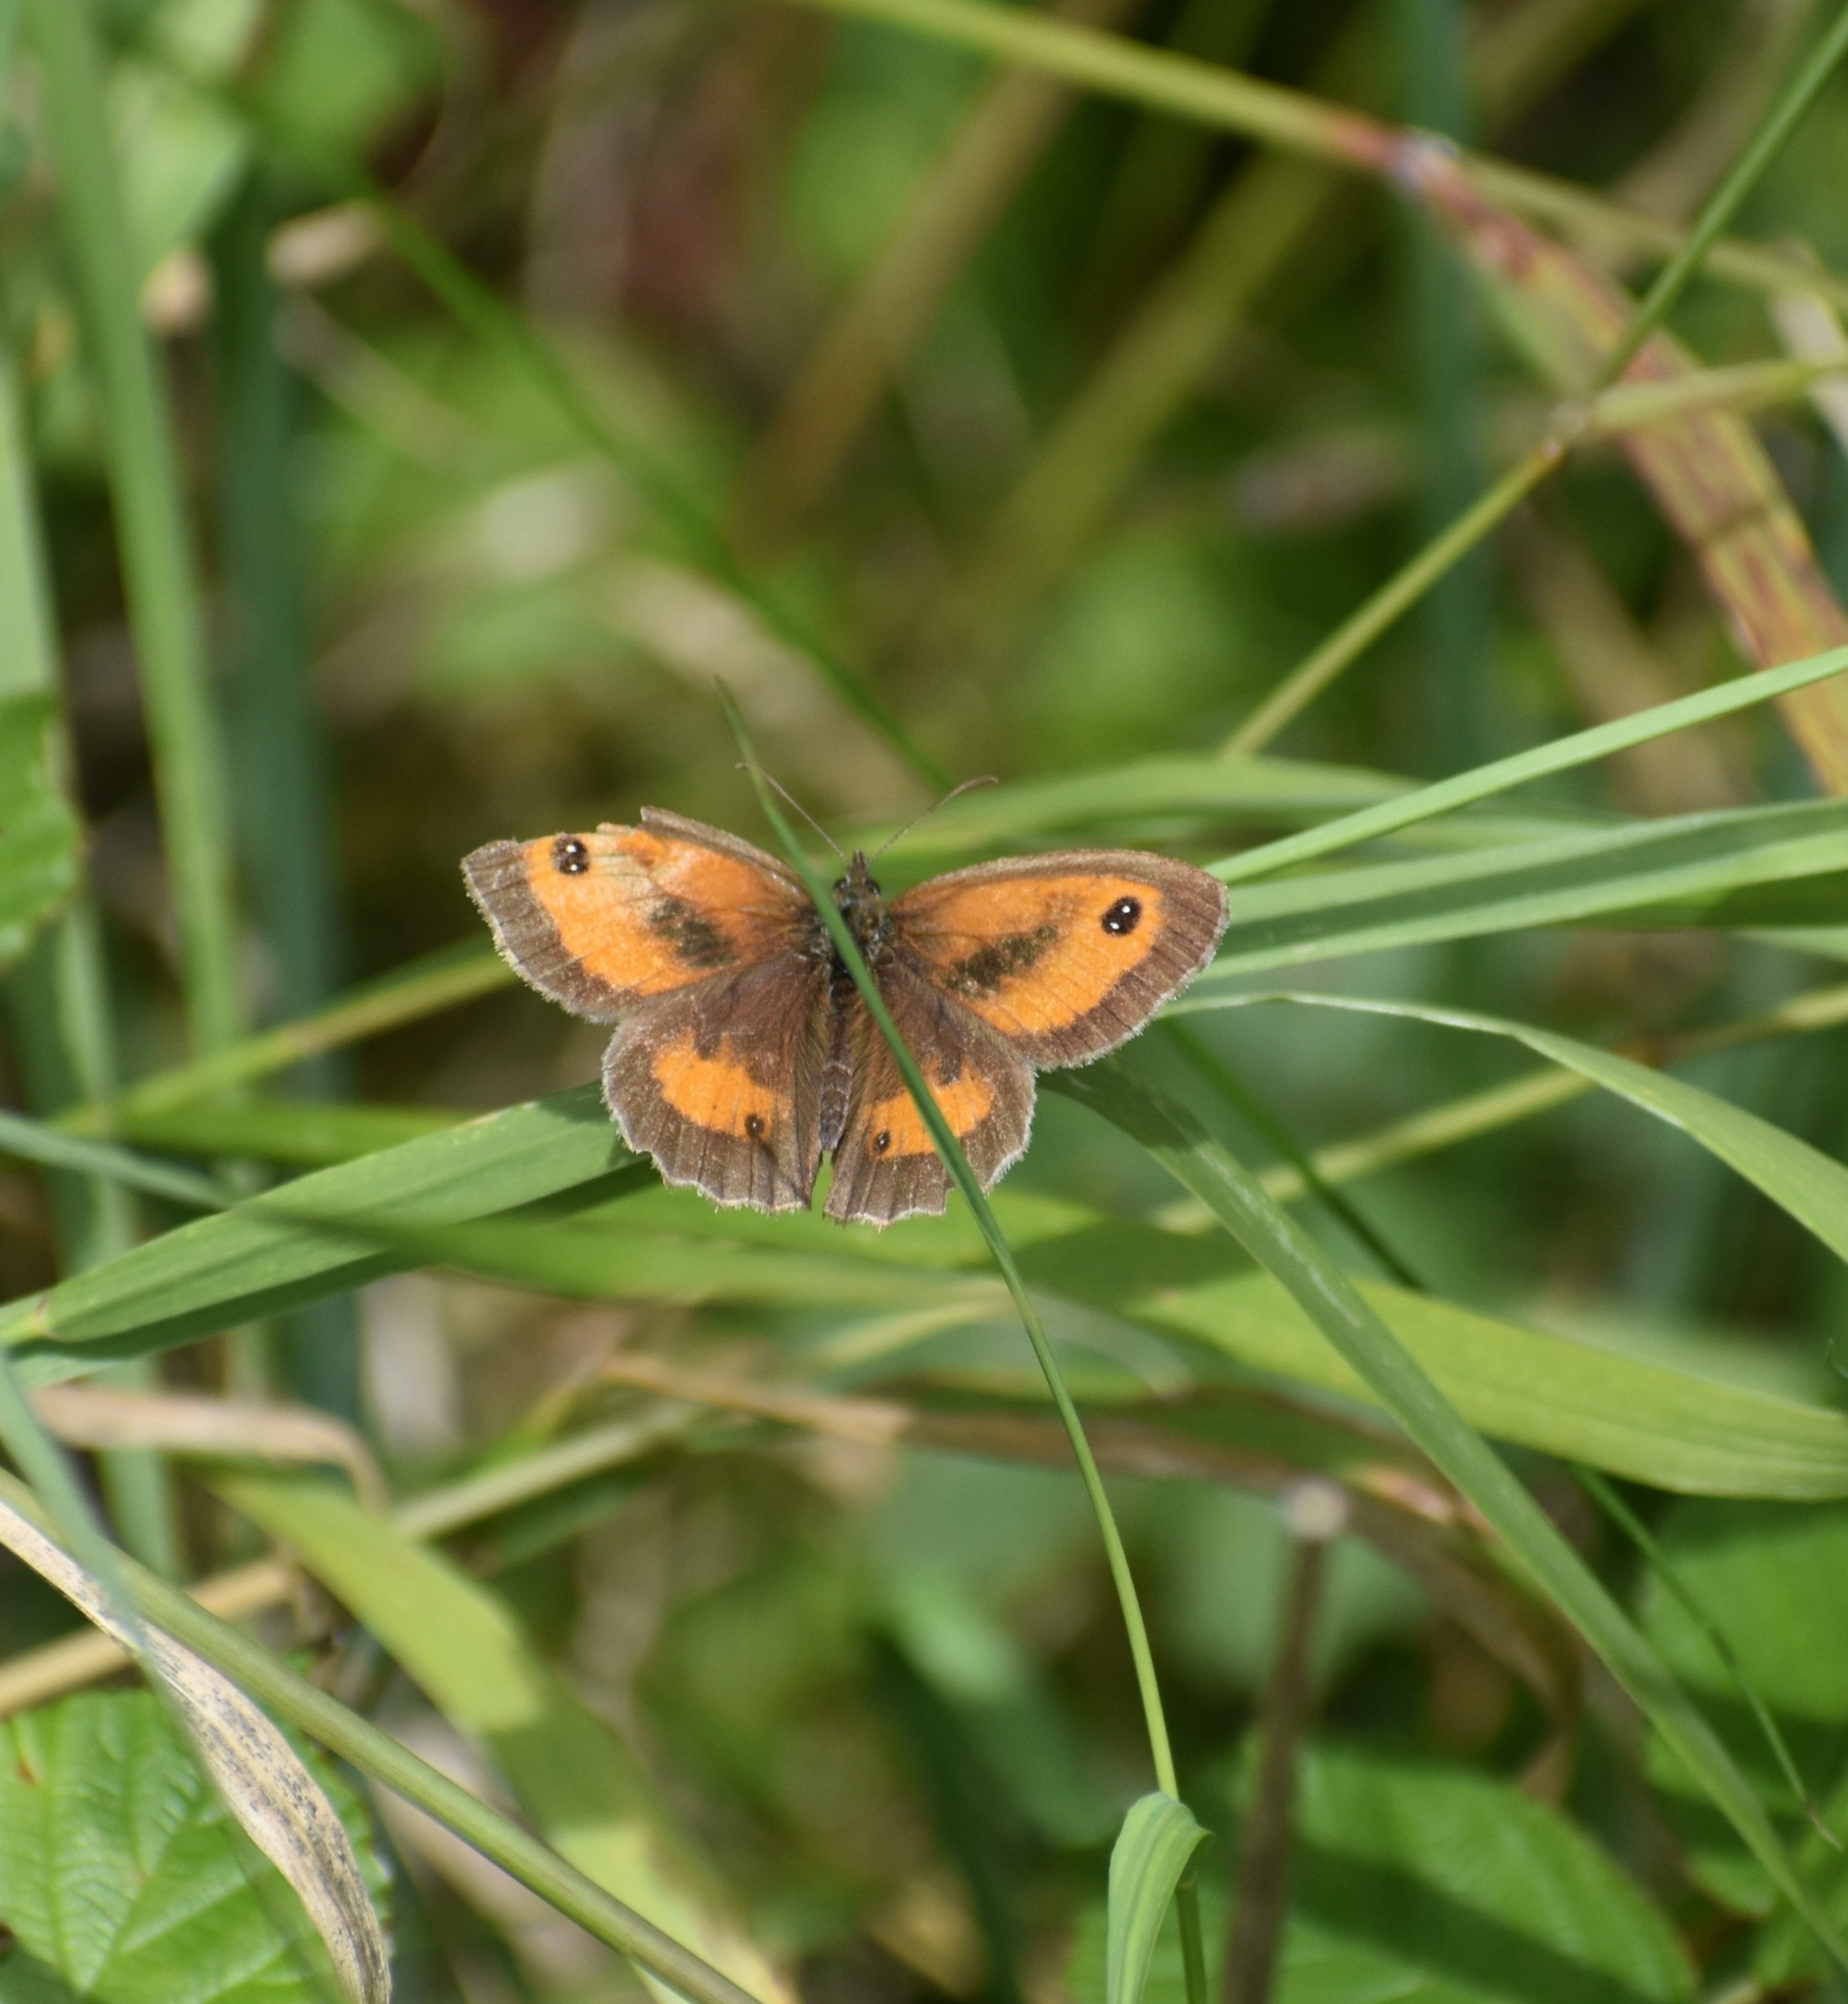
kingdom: Animalia
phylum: Arthropoda
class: Insecta
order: Lepidoptera
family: Nymphalidae
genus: Pyronia
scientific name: Pyronia tithonus
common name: Gatekeeper
